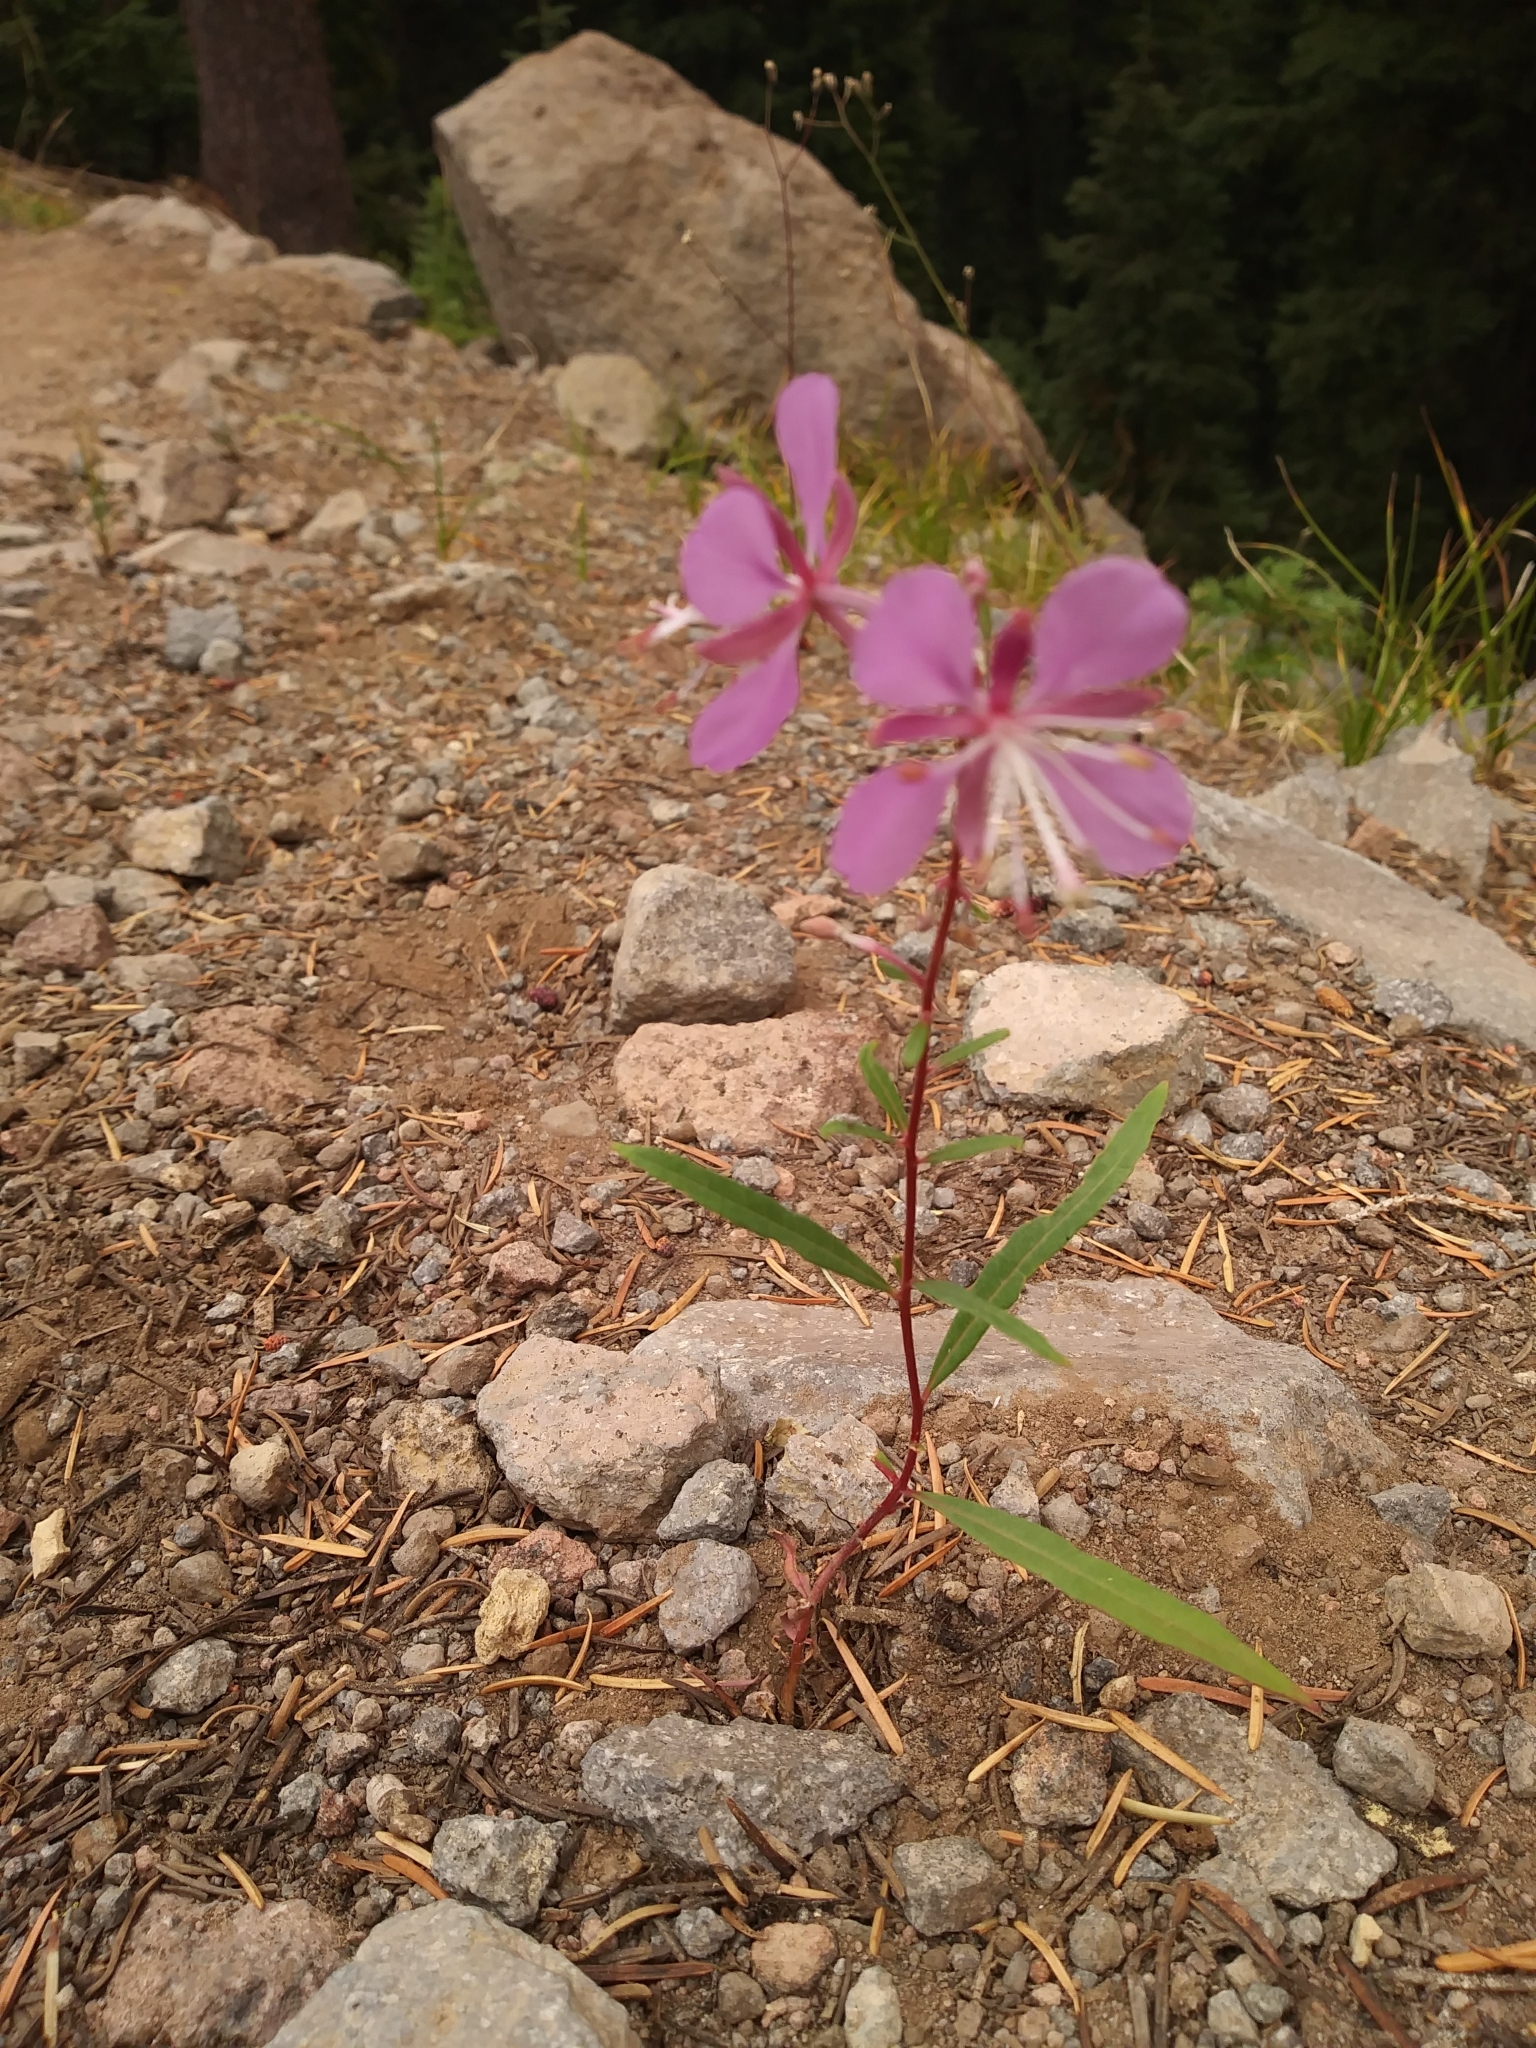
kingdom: Plantae
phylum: Tracheophyta
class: Magnoliopsida
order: Myrtales
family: Onagraceae
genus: Chamaenerion
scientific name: Chamaenerion angustifolium
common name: Fireweed
